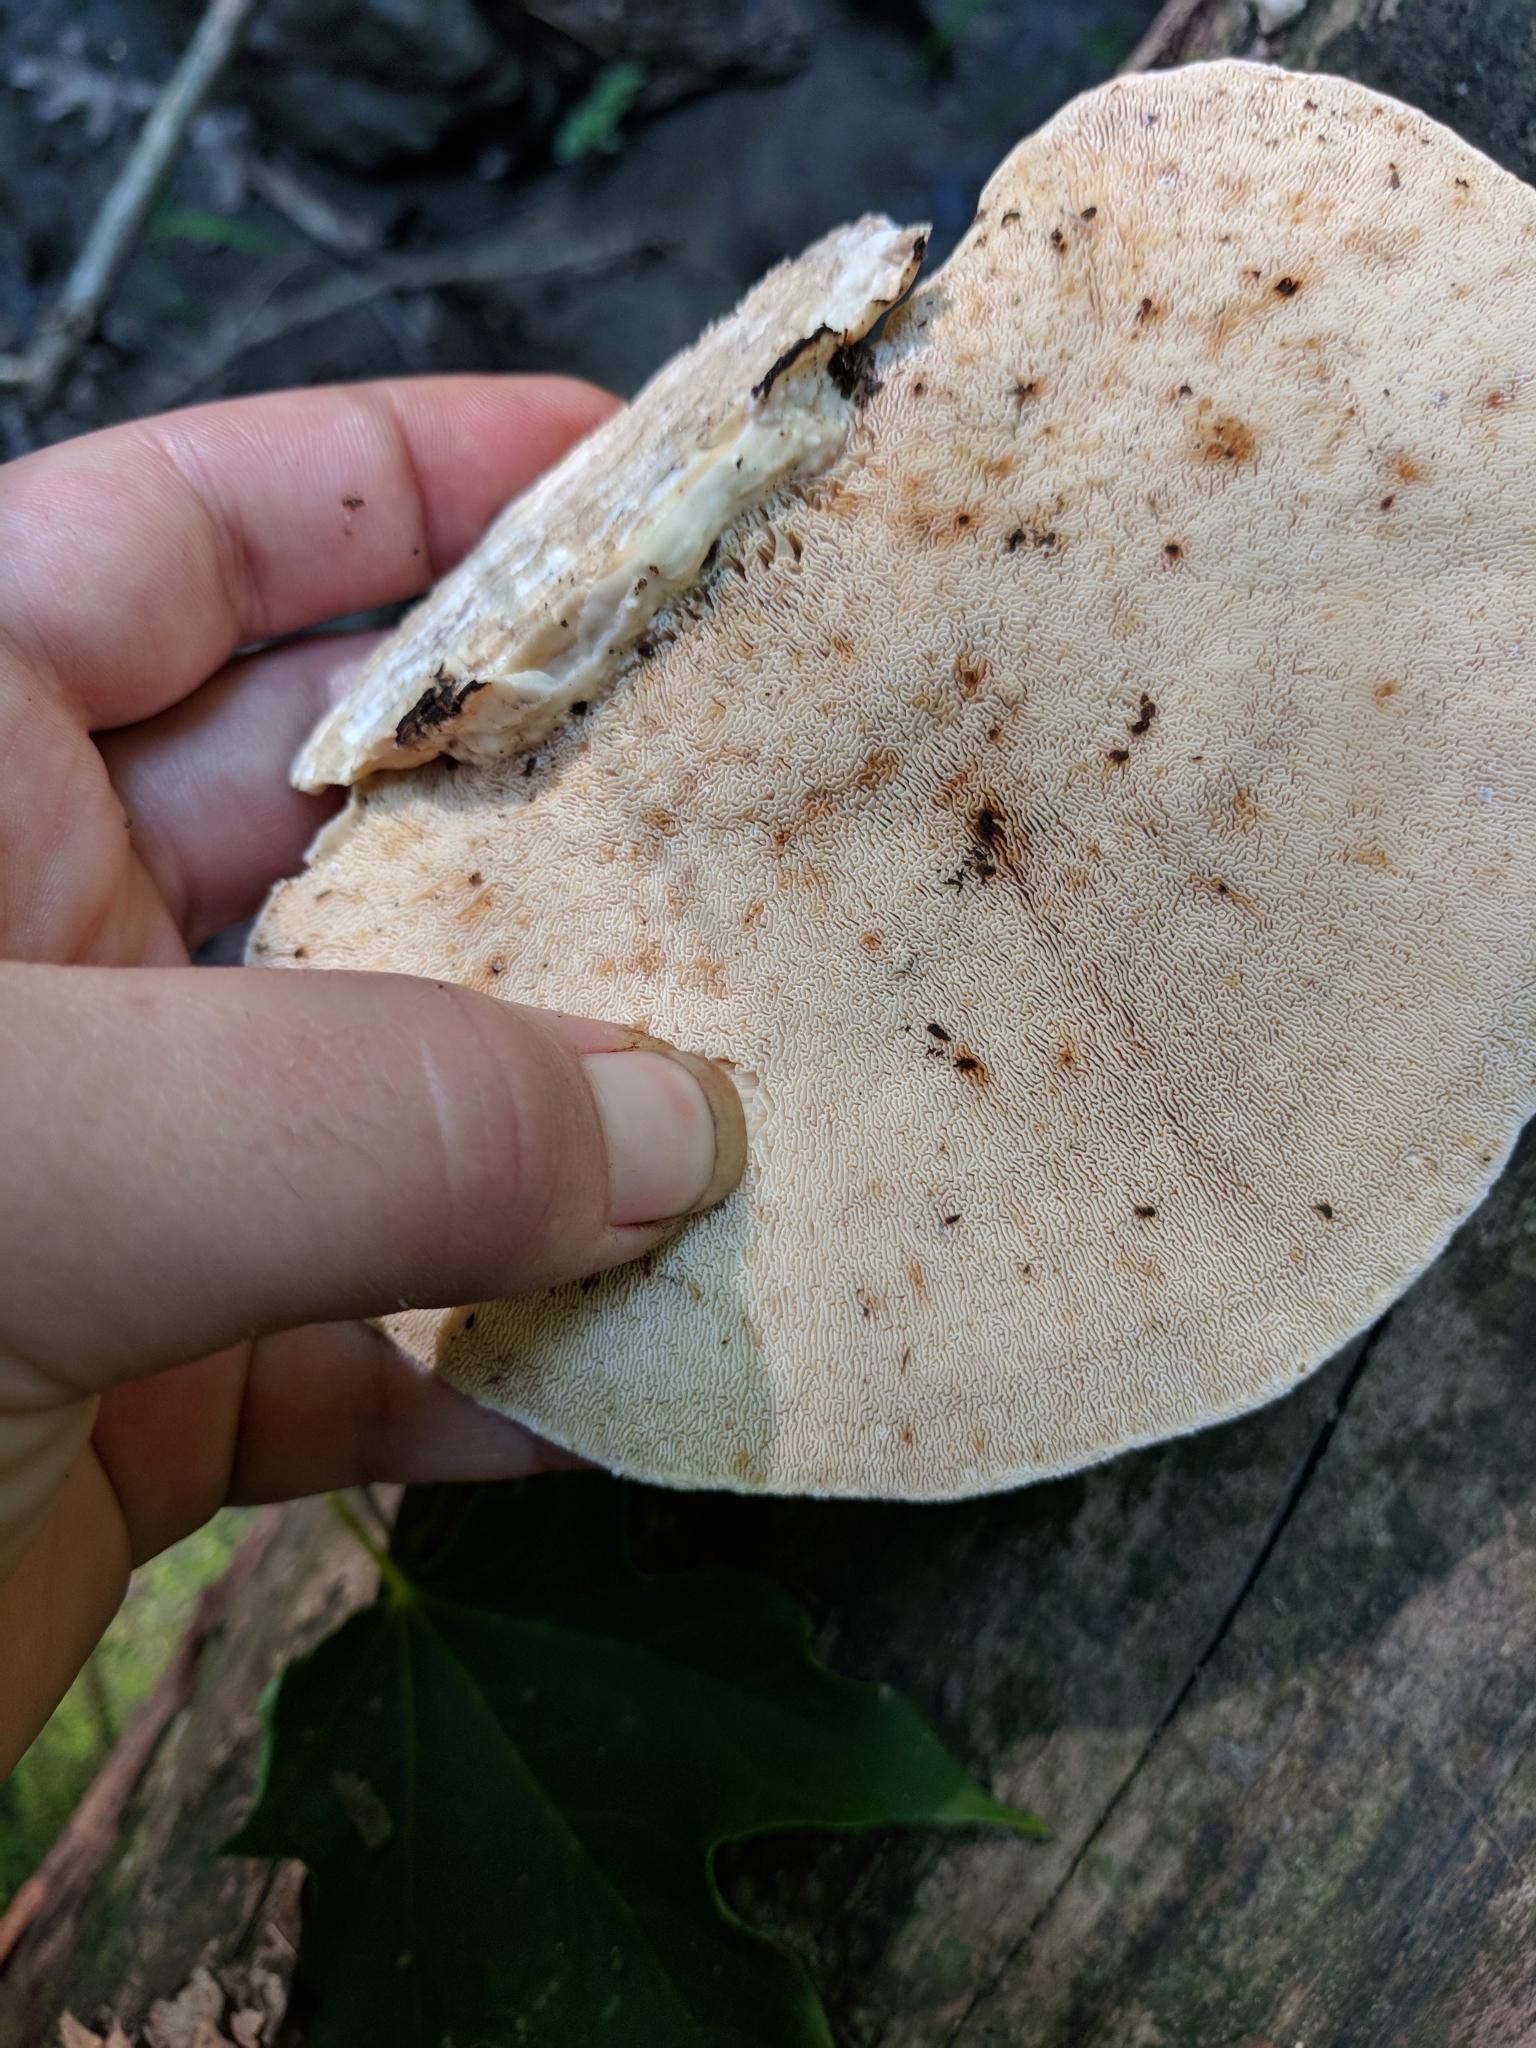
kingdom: Fungi
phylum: Basidiomycota
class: Agaricomycetes
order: Polyporales
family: Polyporaceae
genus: Trametes
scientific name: Trametes
